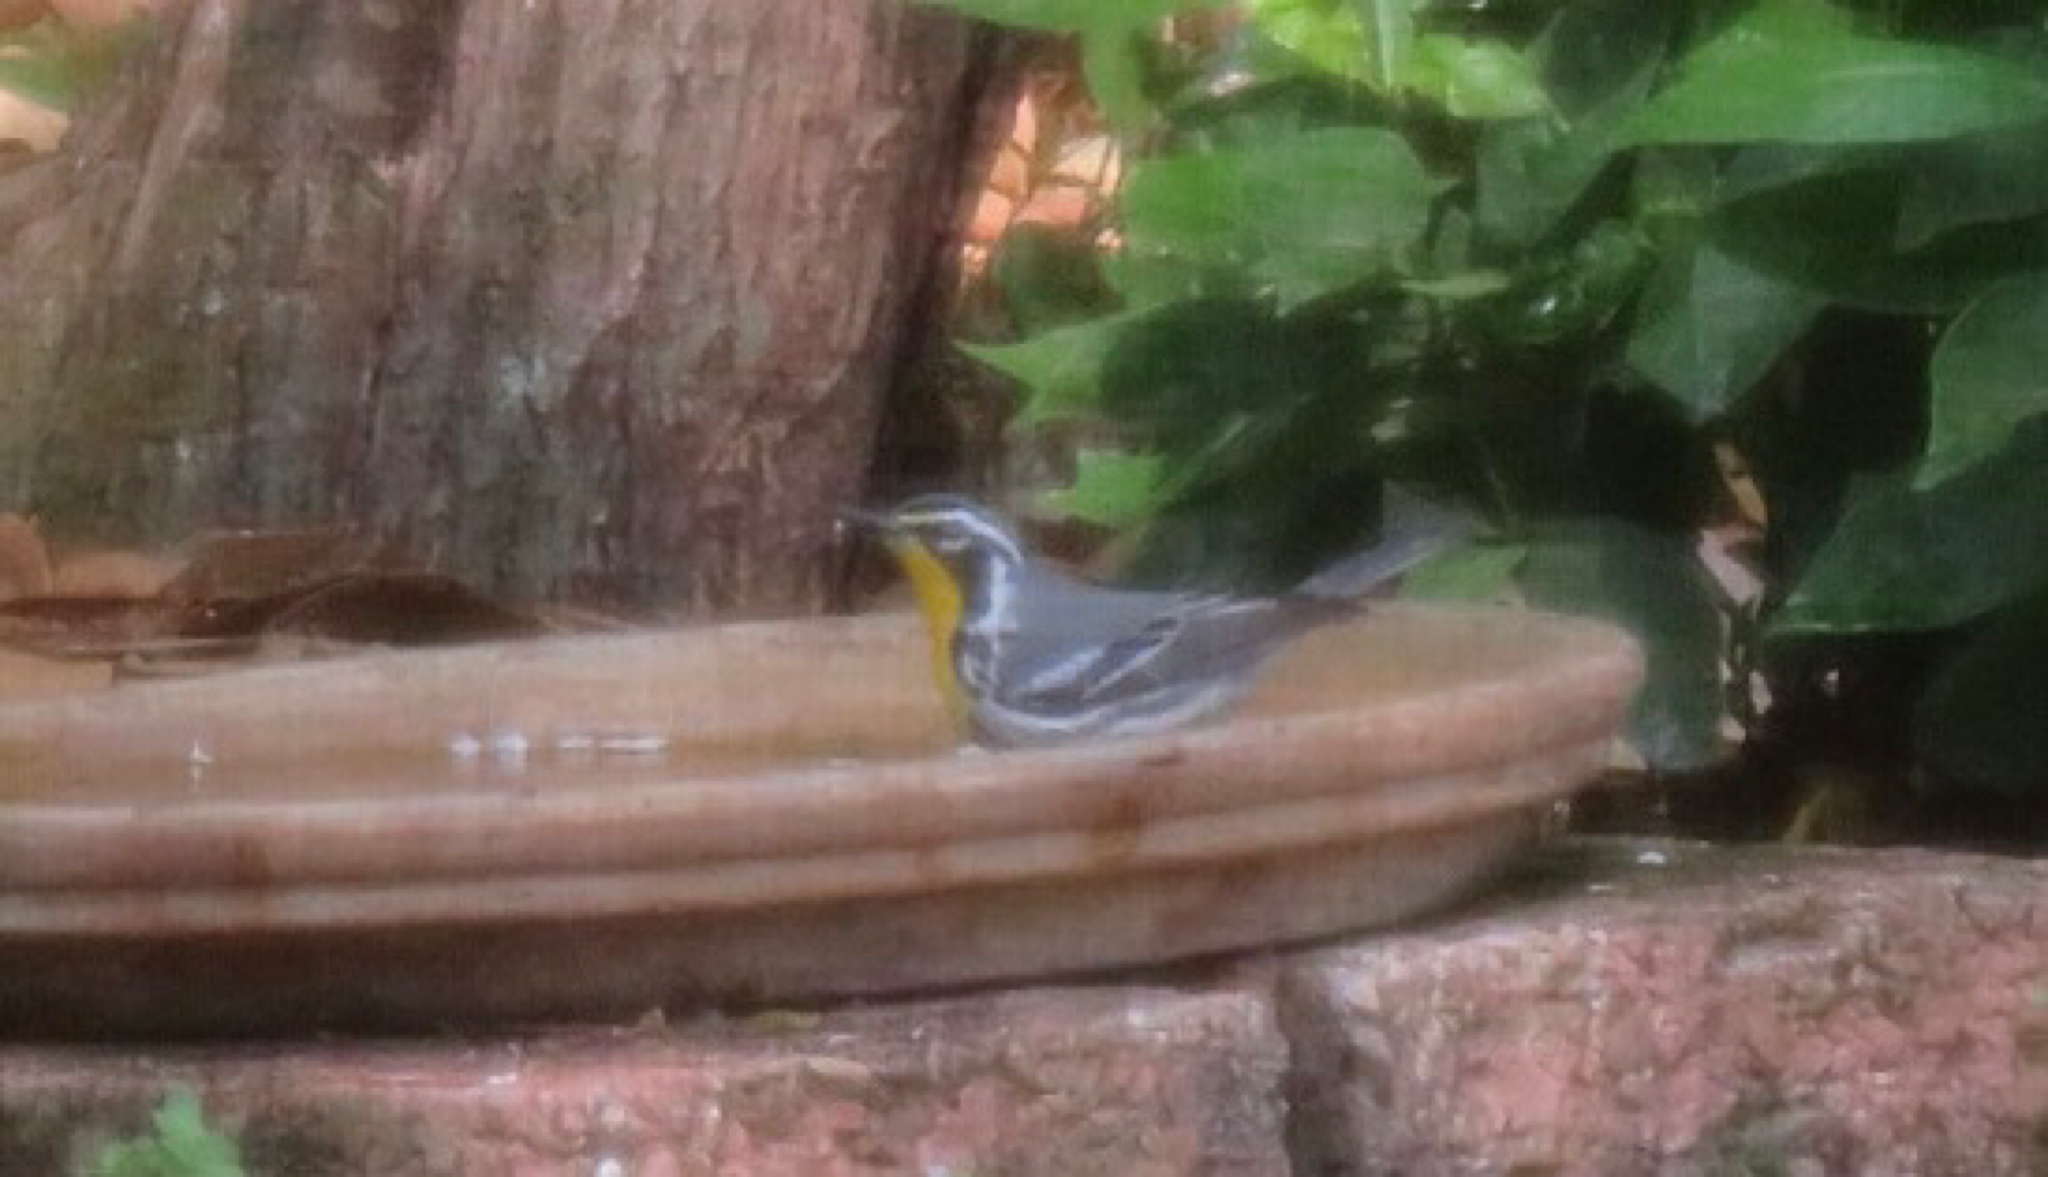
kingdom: Animalia
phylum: Chordata
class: Aves
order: Passeriformes
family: Parulidae
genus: Setophaga
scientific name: Setophaga dominica
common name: Yellow-throated warbler
